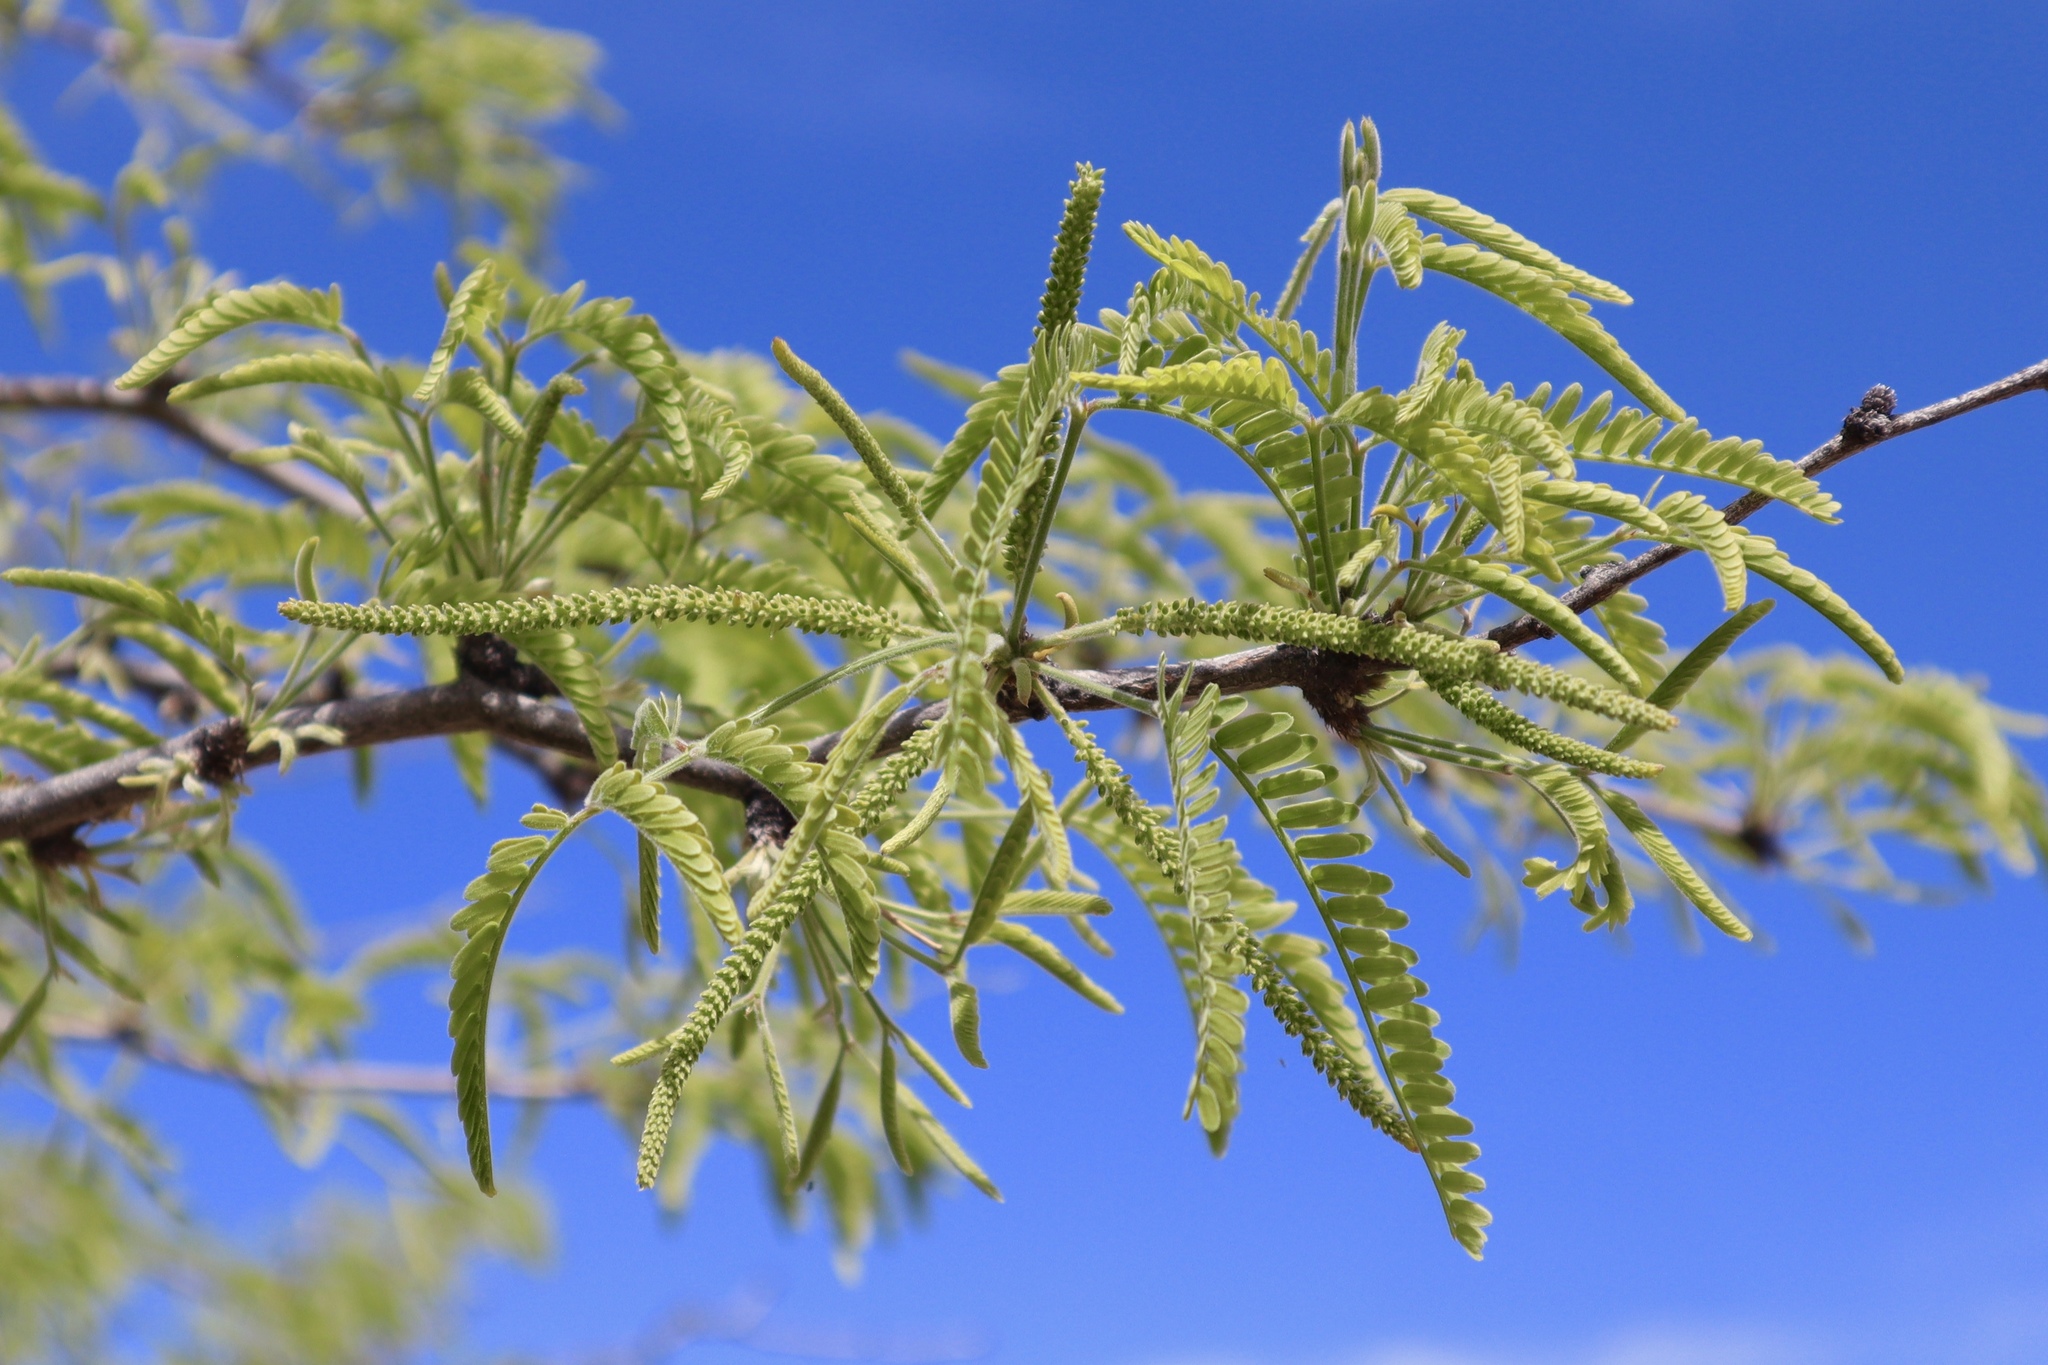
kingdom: Plantae
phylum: Tracheophyta
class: Magnoliopsida
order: Fabales
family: Fabaceae
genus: Prosopis
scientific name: Prosopis velutina
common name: Velvet mesquite
